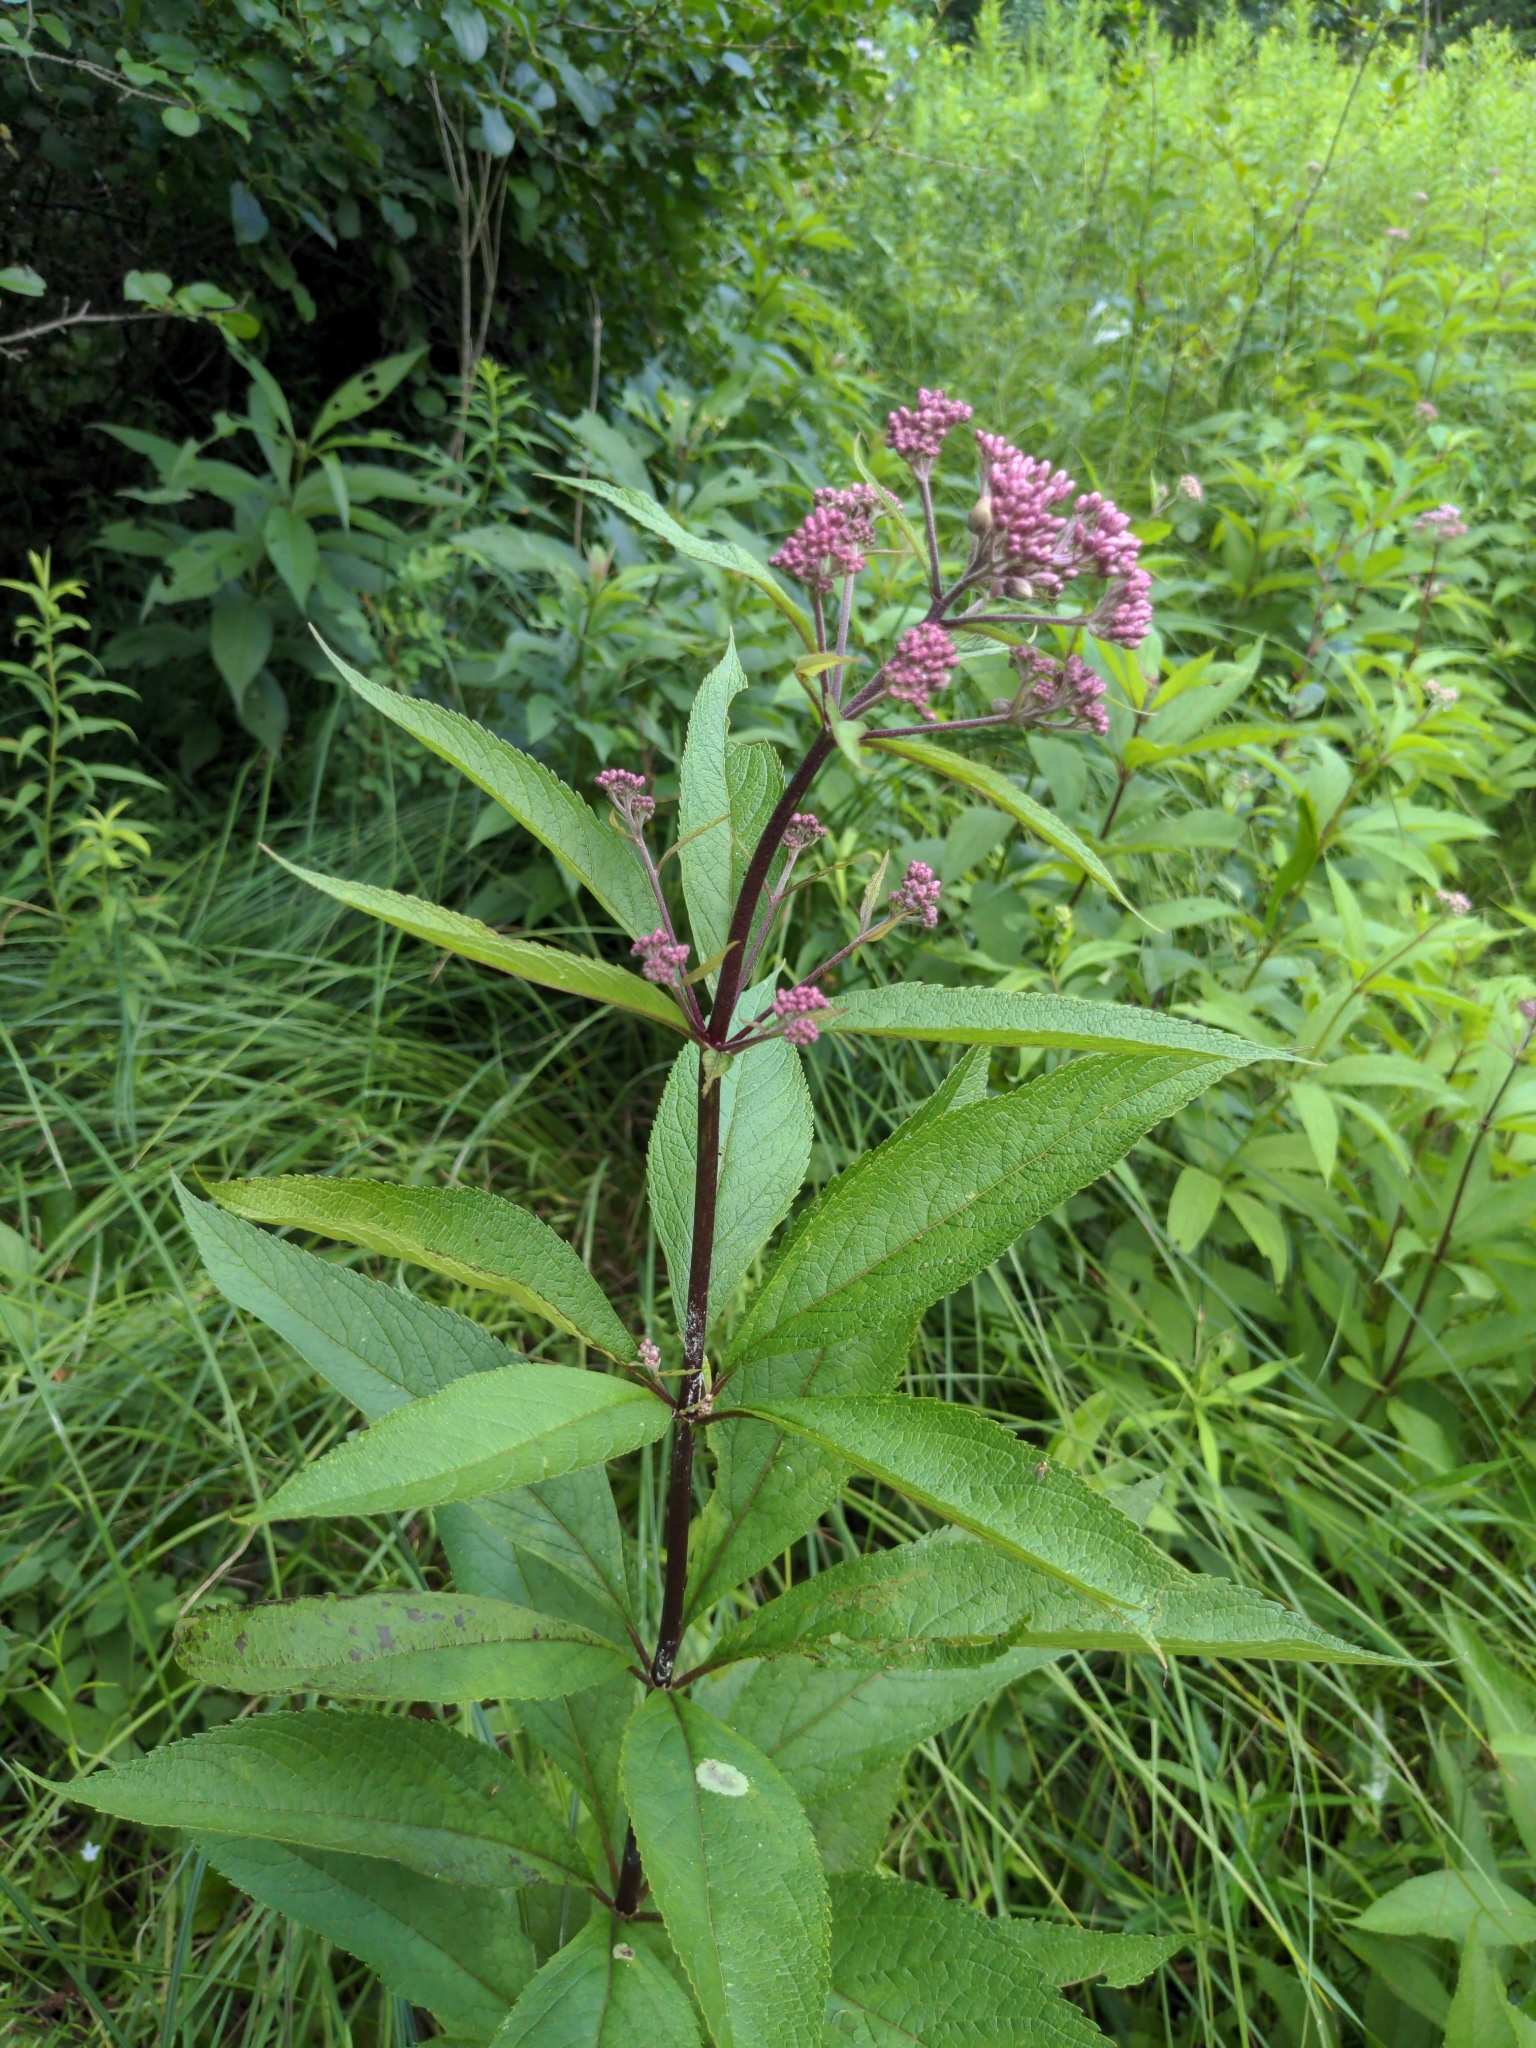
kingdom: Plantae
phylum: Tracheophyta
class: Magnoliopsida
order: Asterales
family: Asteraceae
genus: Eutrochium
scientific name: Eutrochium maculatum
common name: Spotted joe pye weed
